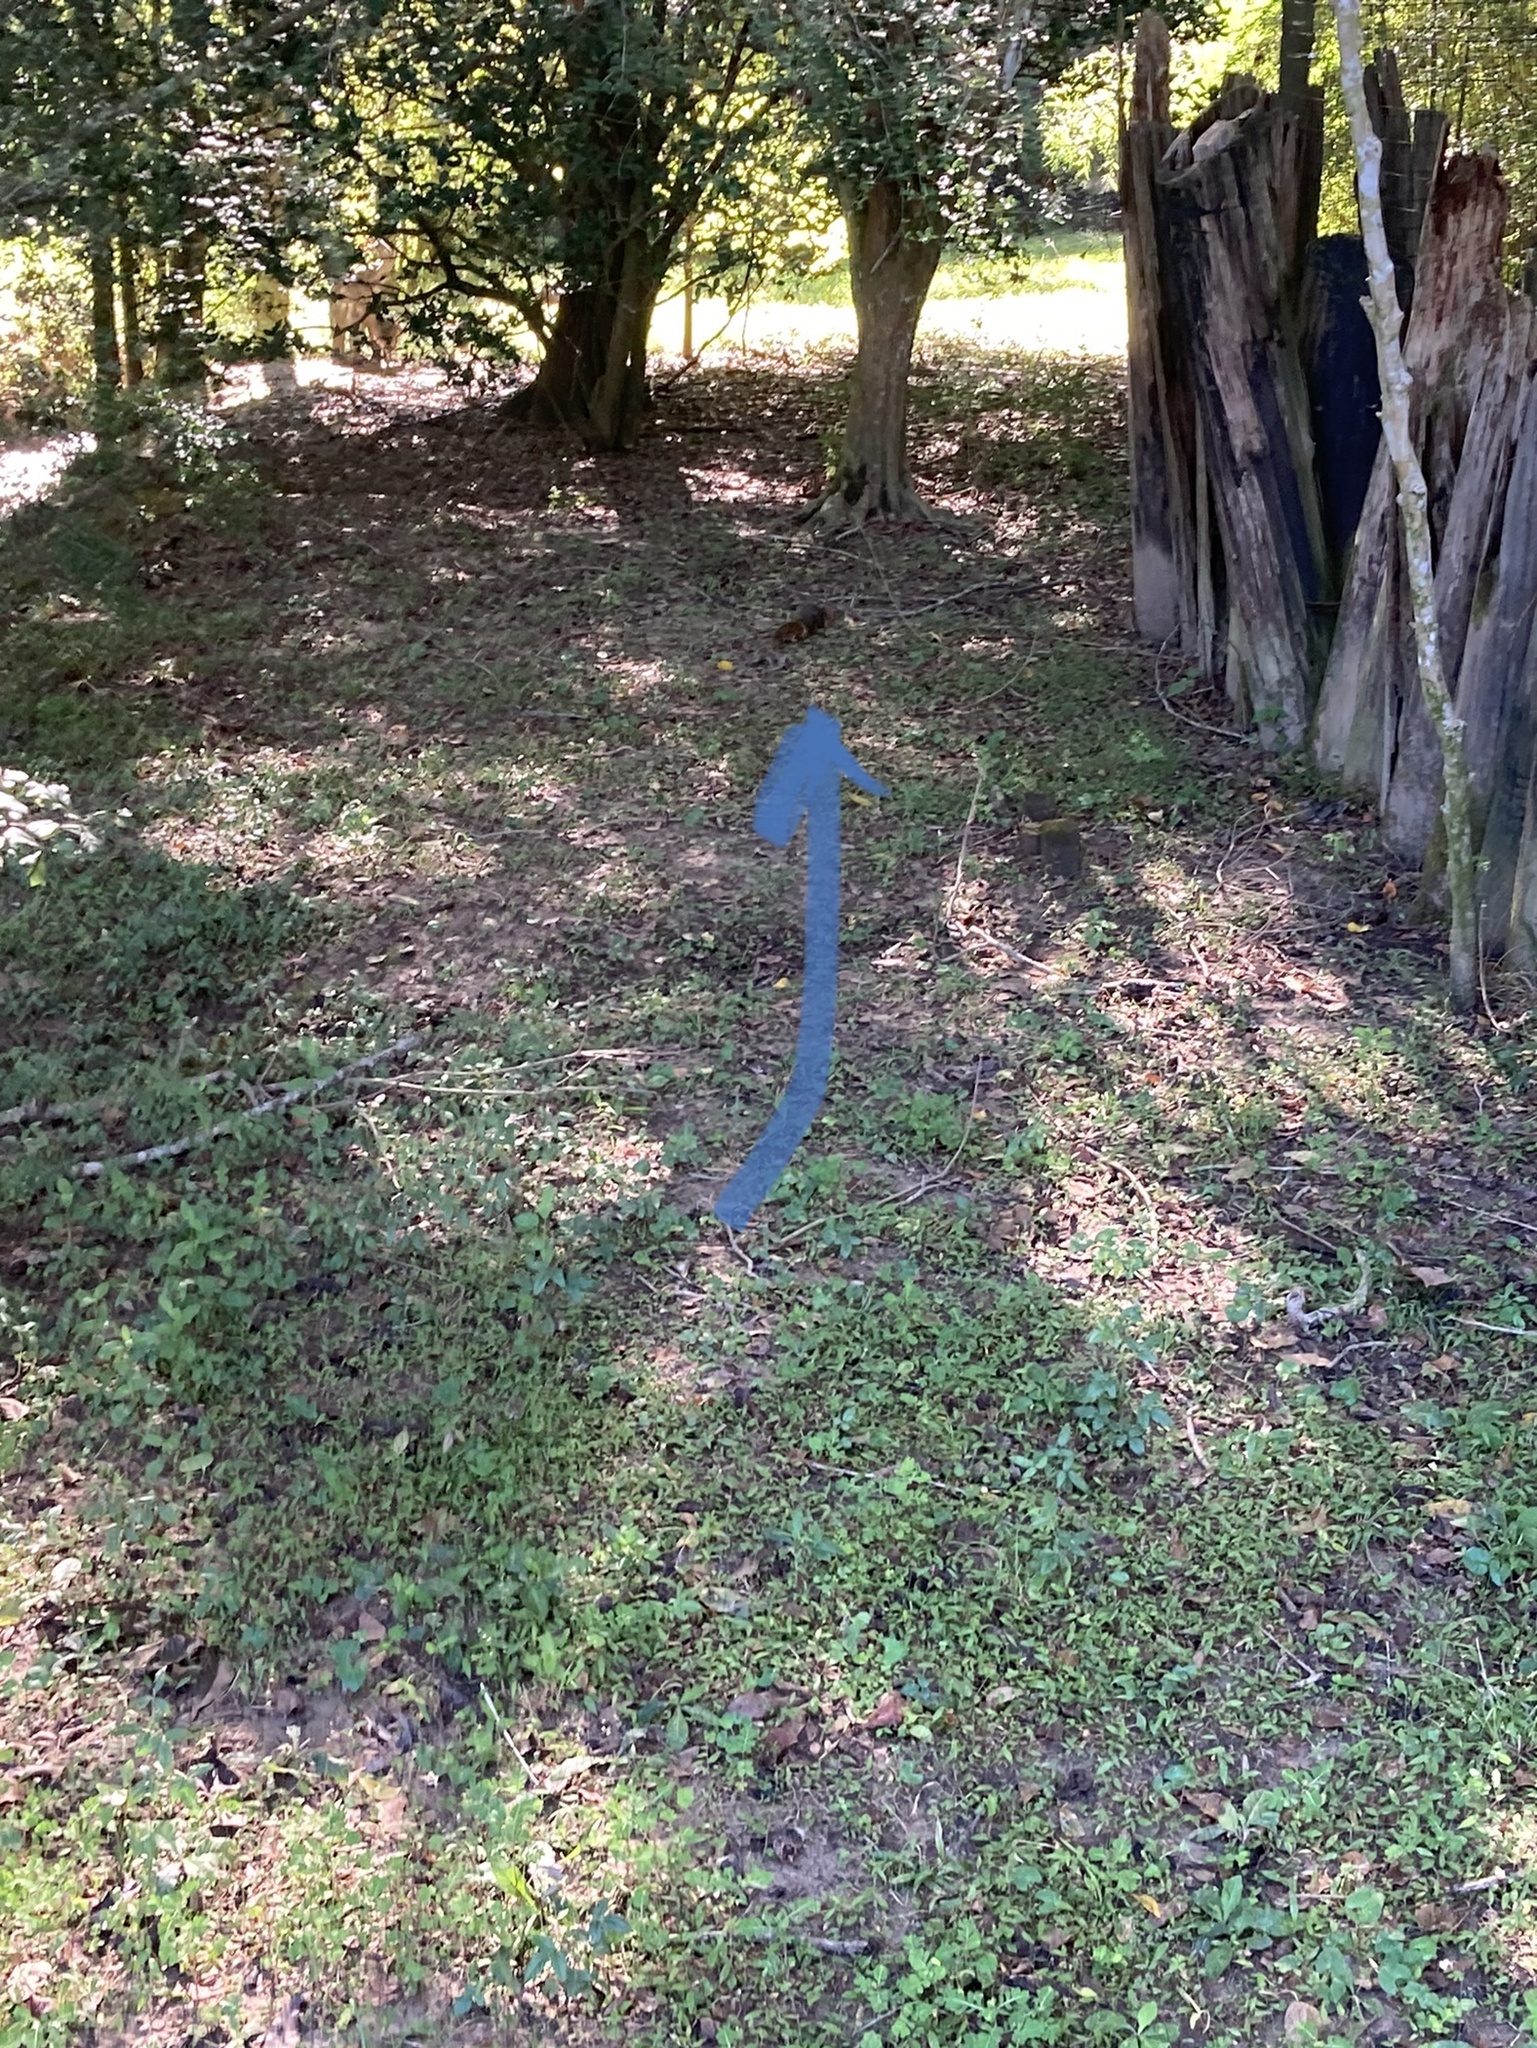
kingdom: Animalia
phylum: Chordata
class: Mammalia
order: Rodentia
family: Sciuridae
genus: Sciurus
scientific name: Sciurus niger
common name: Fox squirrel
